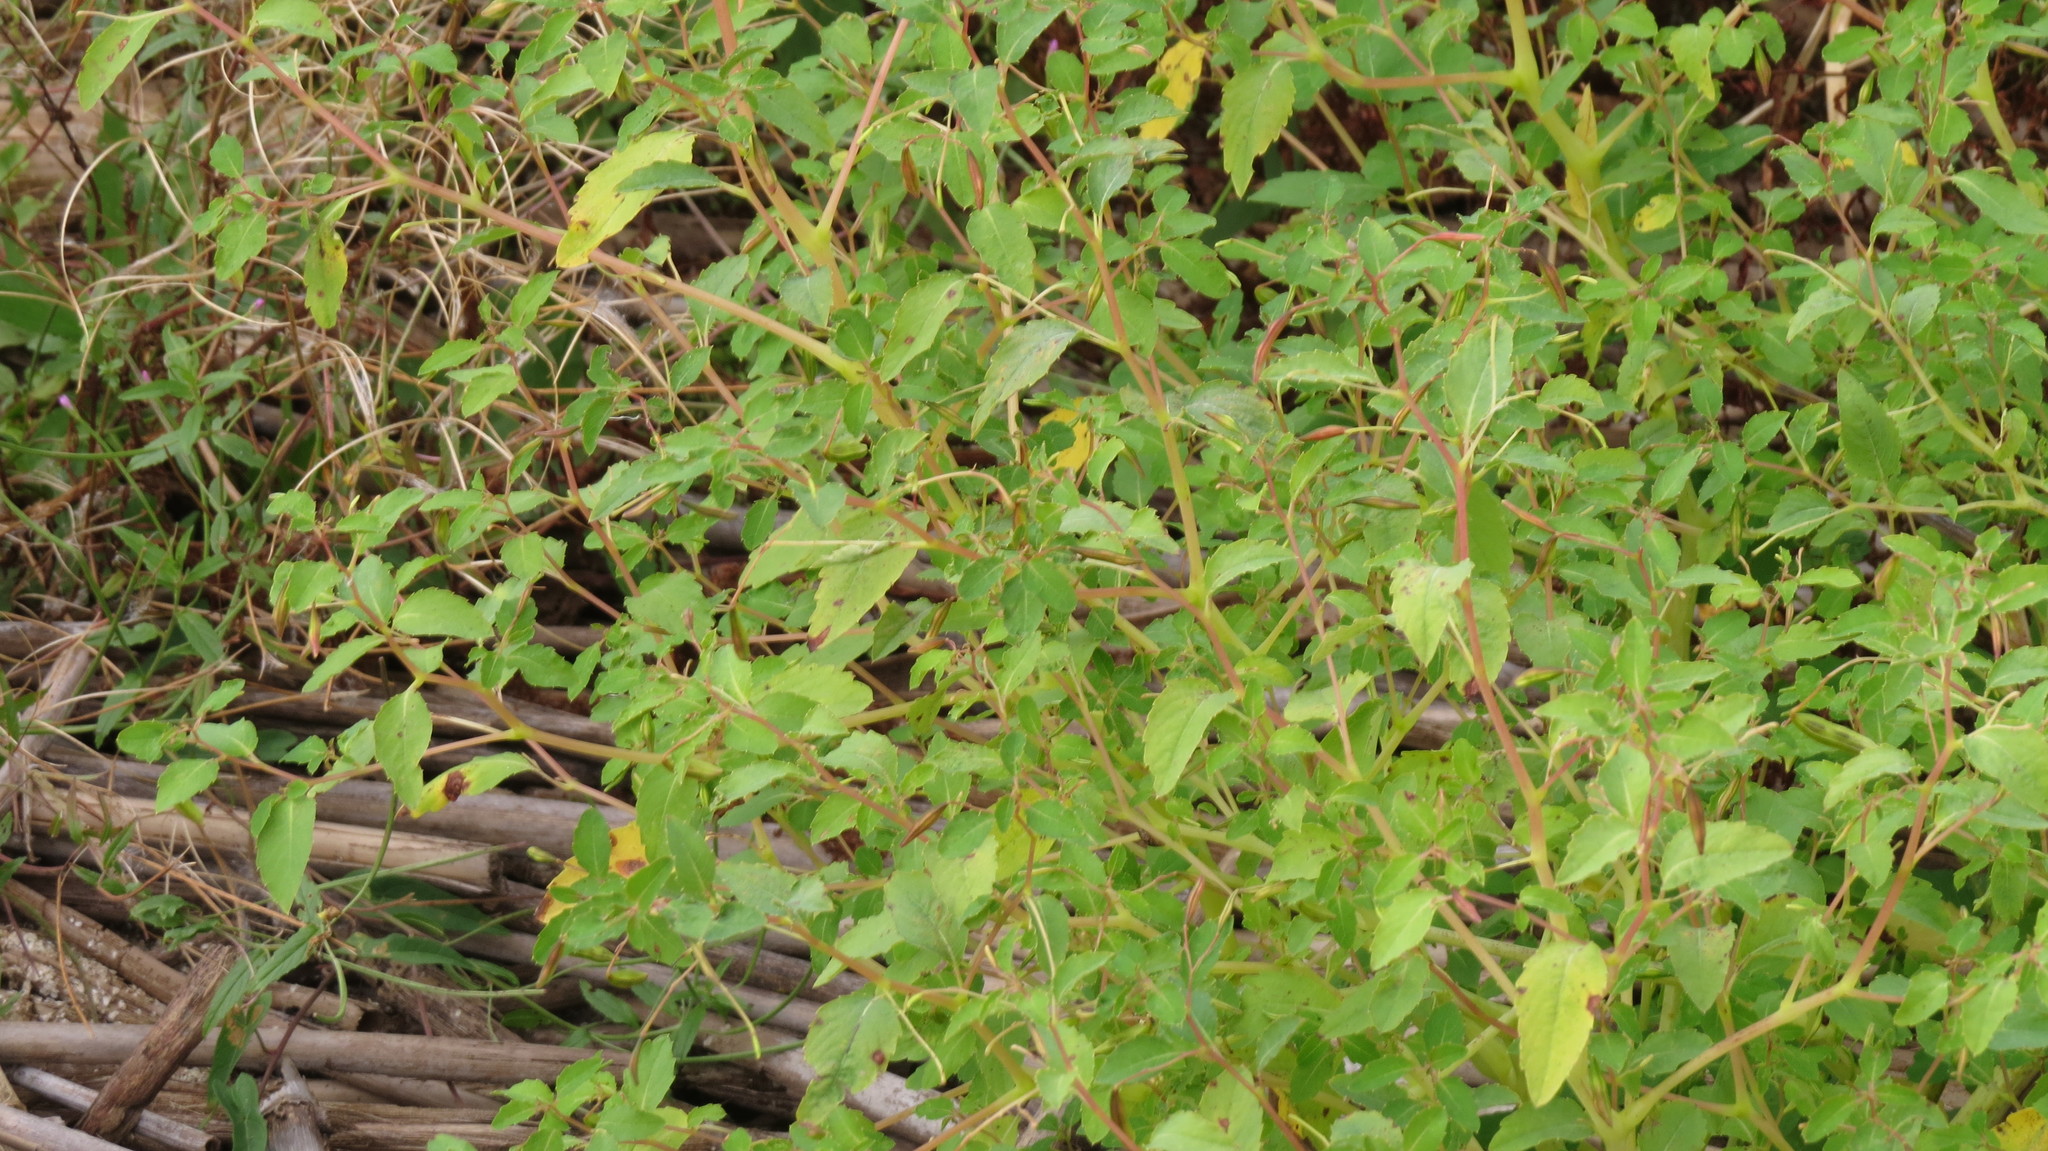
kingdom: Plantae
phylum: Tracheophyta
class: Magnoliopsida
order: Ericales
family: Balsaminaceae
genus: Impatiens
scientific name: Impatiens capensis
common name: Orange balsam
